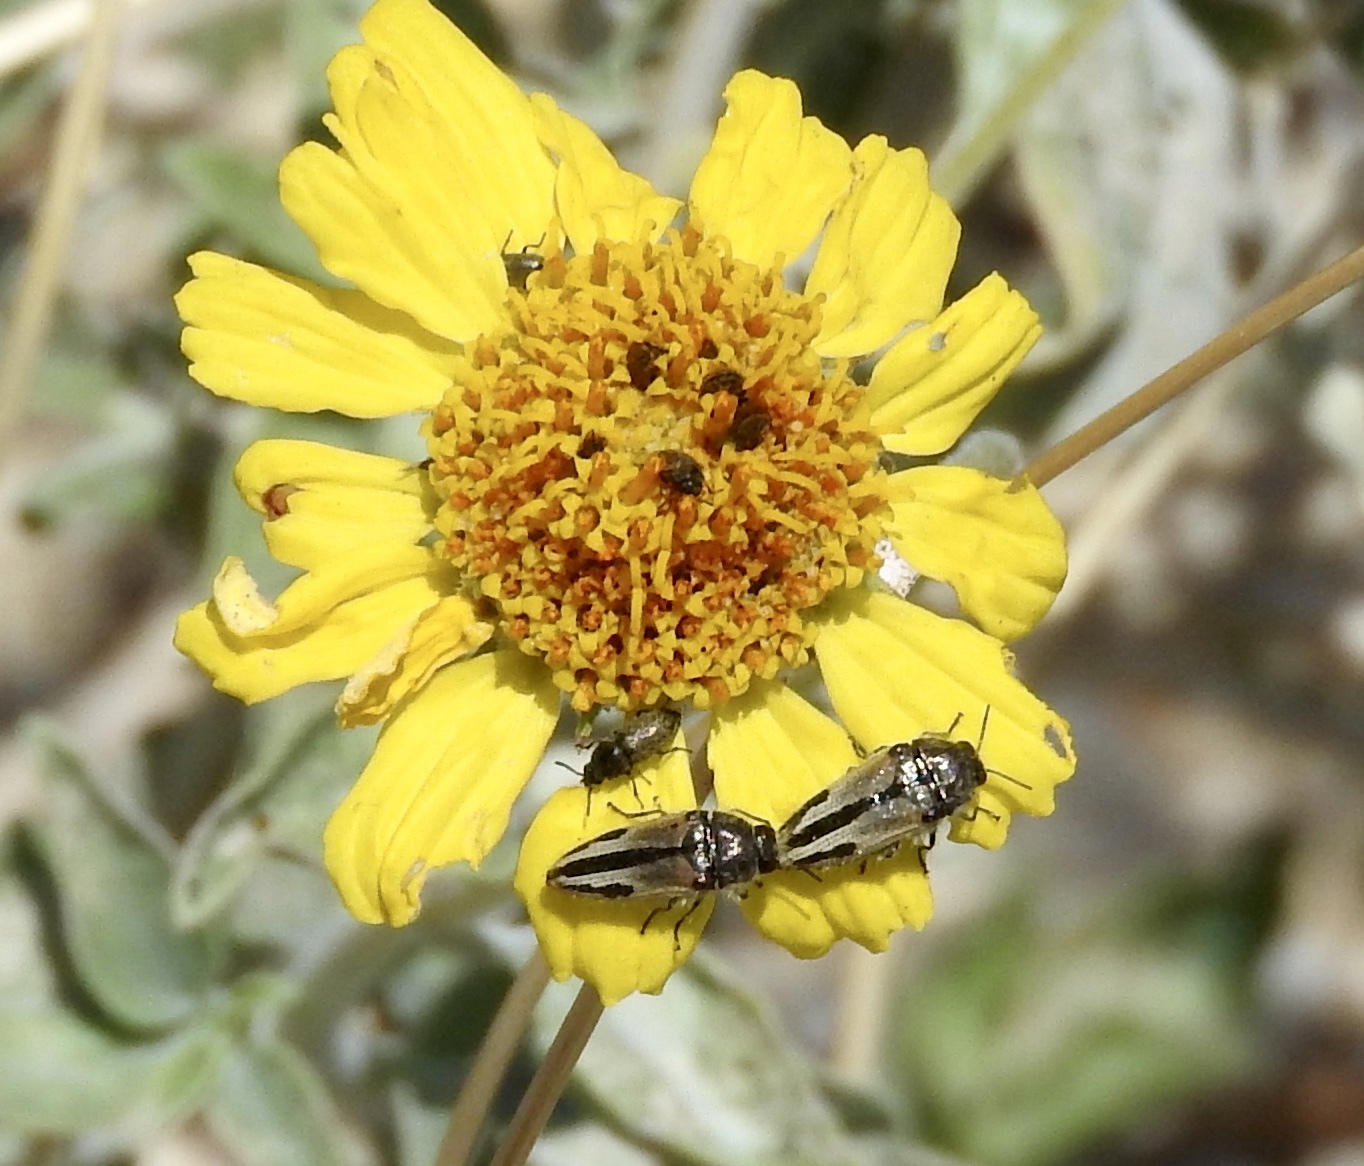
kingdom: Animalia
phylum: Arthropoda
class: Insecta
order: Coleoptera
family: Buprestidae
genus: Acmaeodera
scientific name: Acmaeodera latiflava
